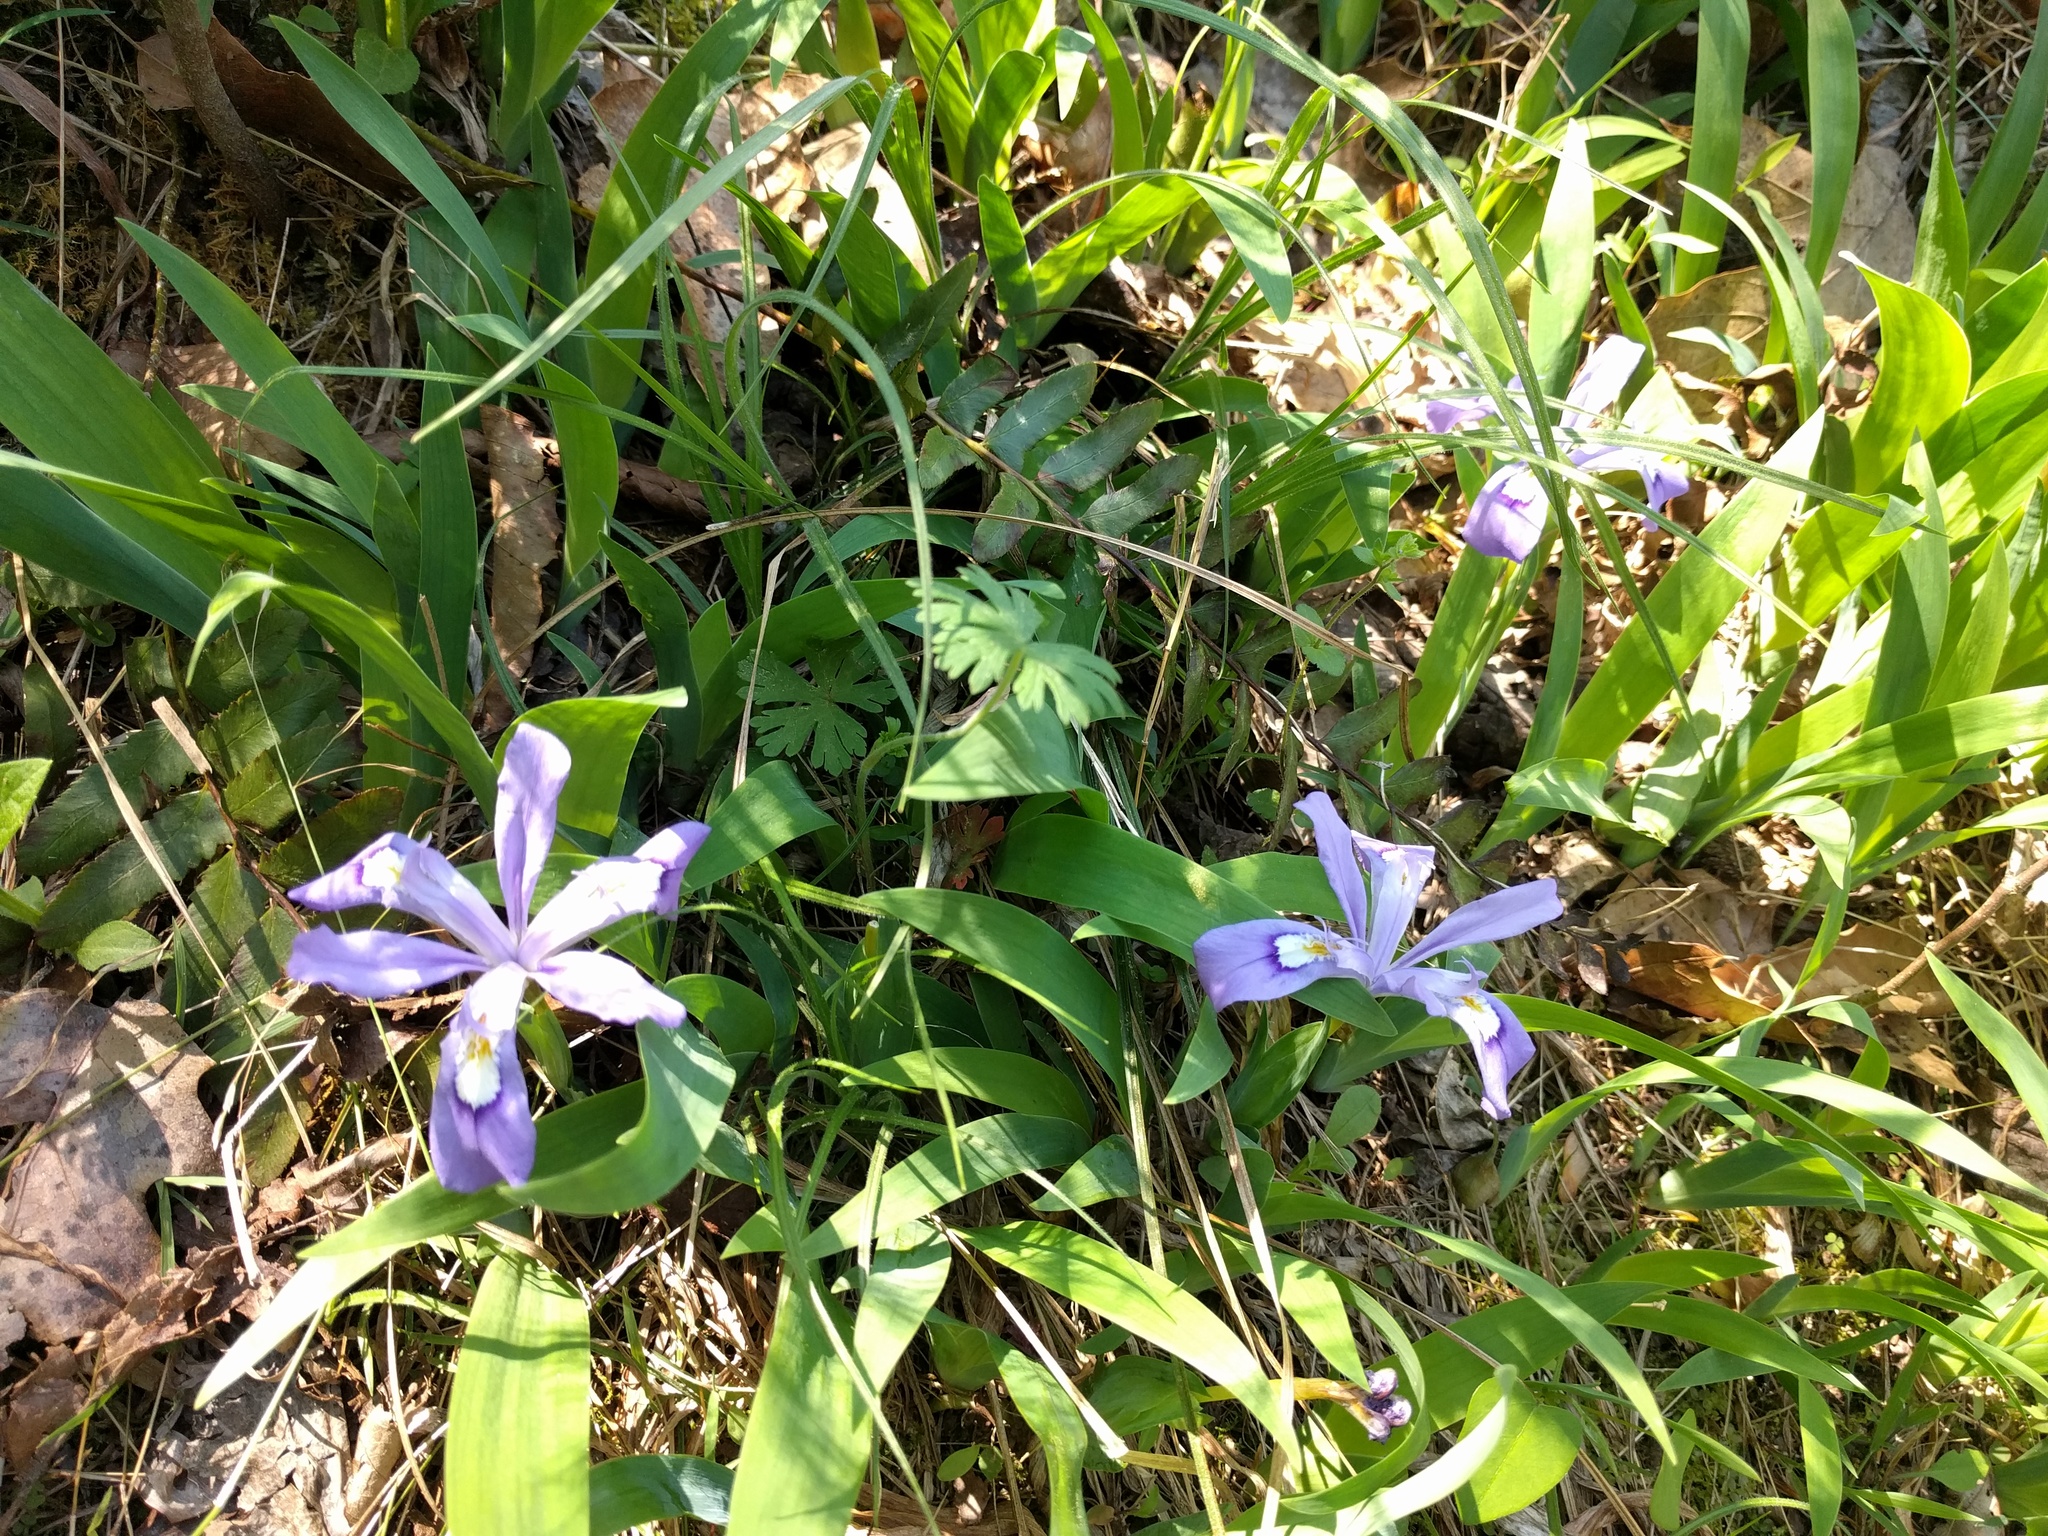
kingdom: Plantae
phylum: Tracheophyta
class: Liliopsida
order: Asparagales
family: Iridaceae
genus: Iris
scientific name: Iris cristata
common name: Crested iris
